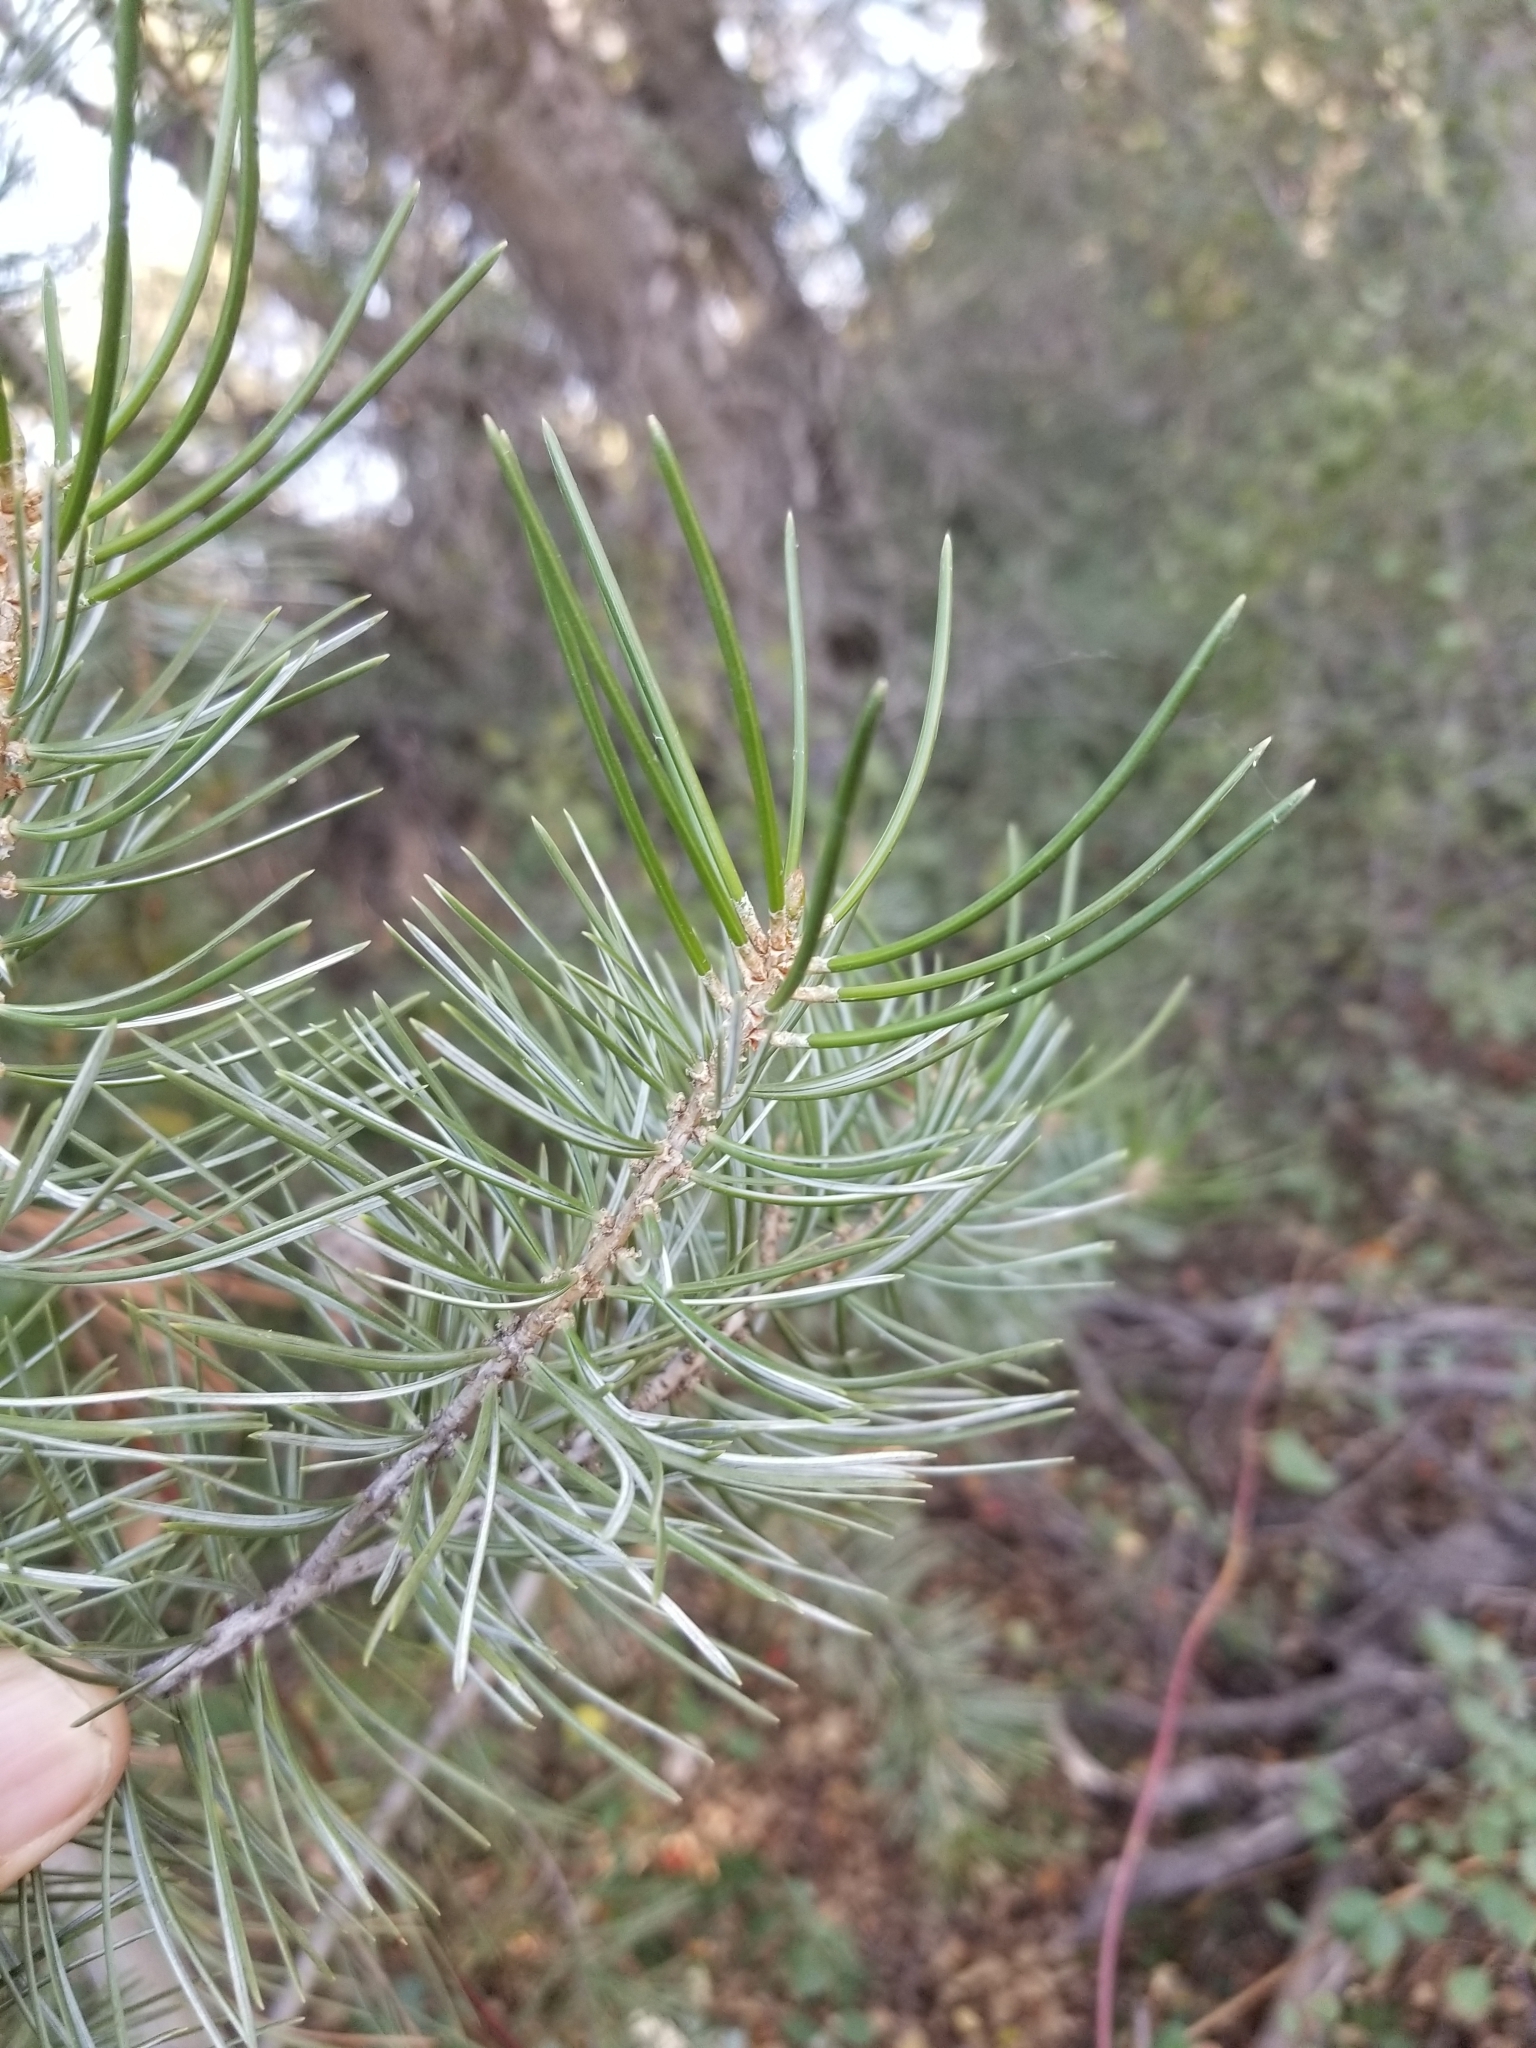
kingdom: Plantae
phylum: Tracheophyta
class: Pinopsida
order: Pinales
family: Pinaceae
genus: Pinus
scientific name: Pinus quadrifolia
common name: Parry pinyon
